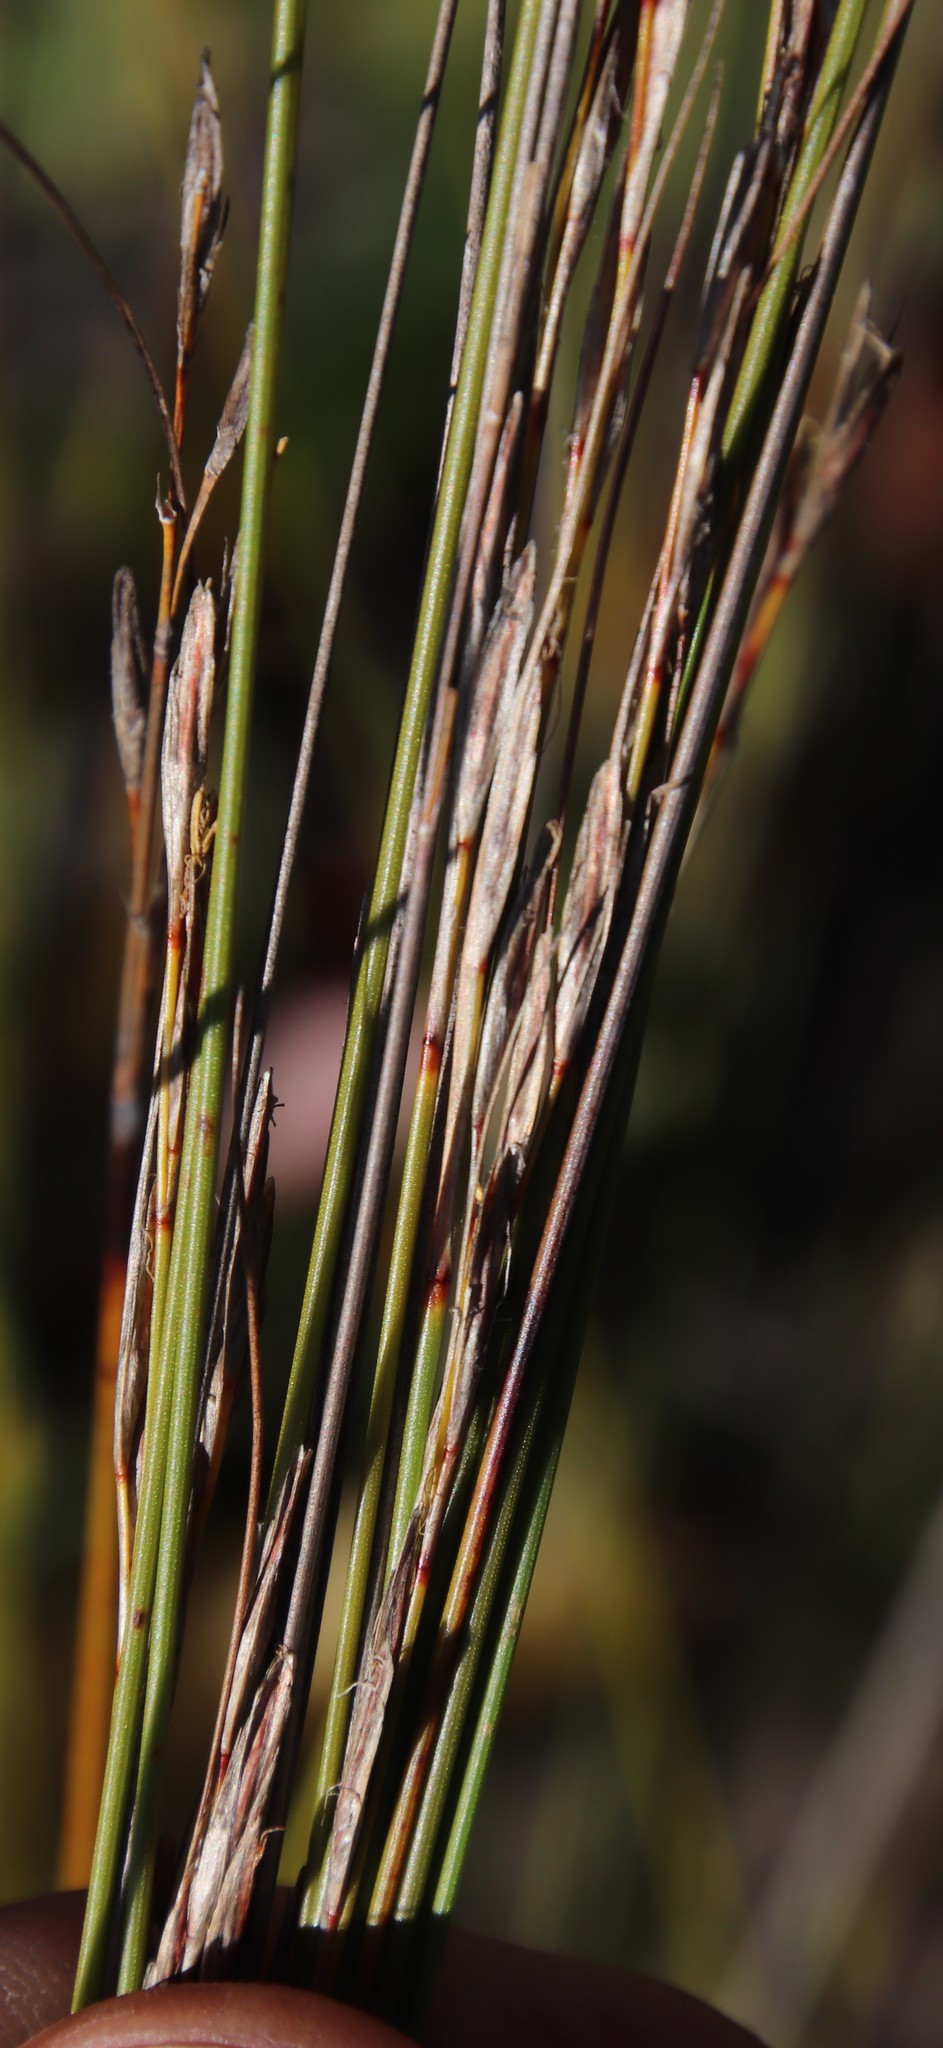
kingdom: Plantae
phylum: Tracheophyta
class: Liliopsida
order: Poales
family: Cyperaceae
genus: Schoenus
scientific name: Schoenus inconspicuus
